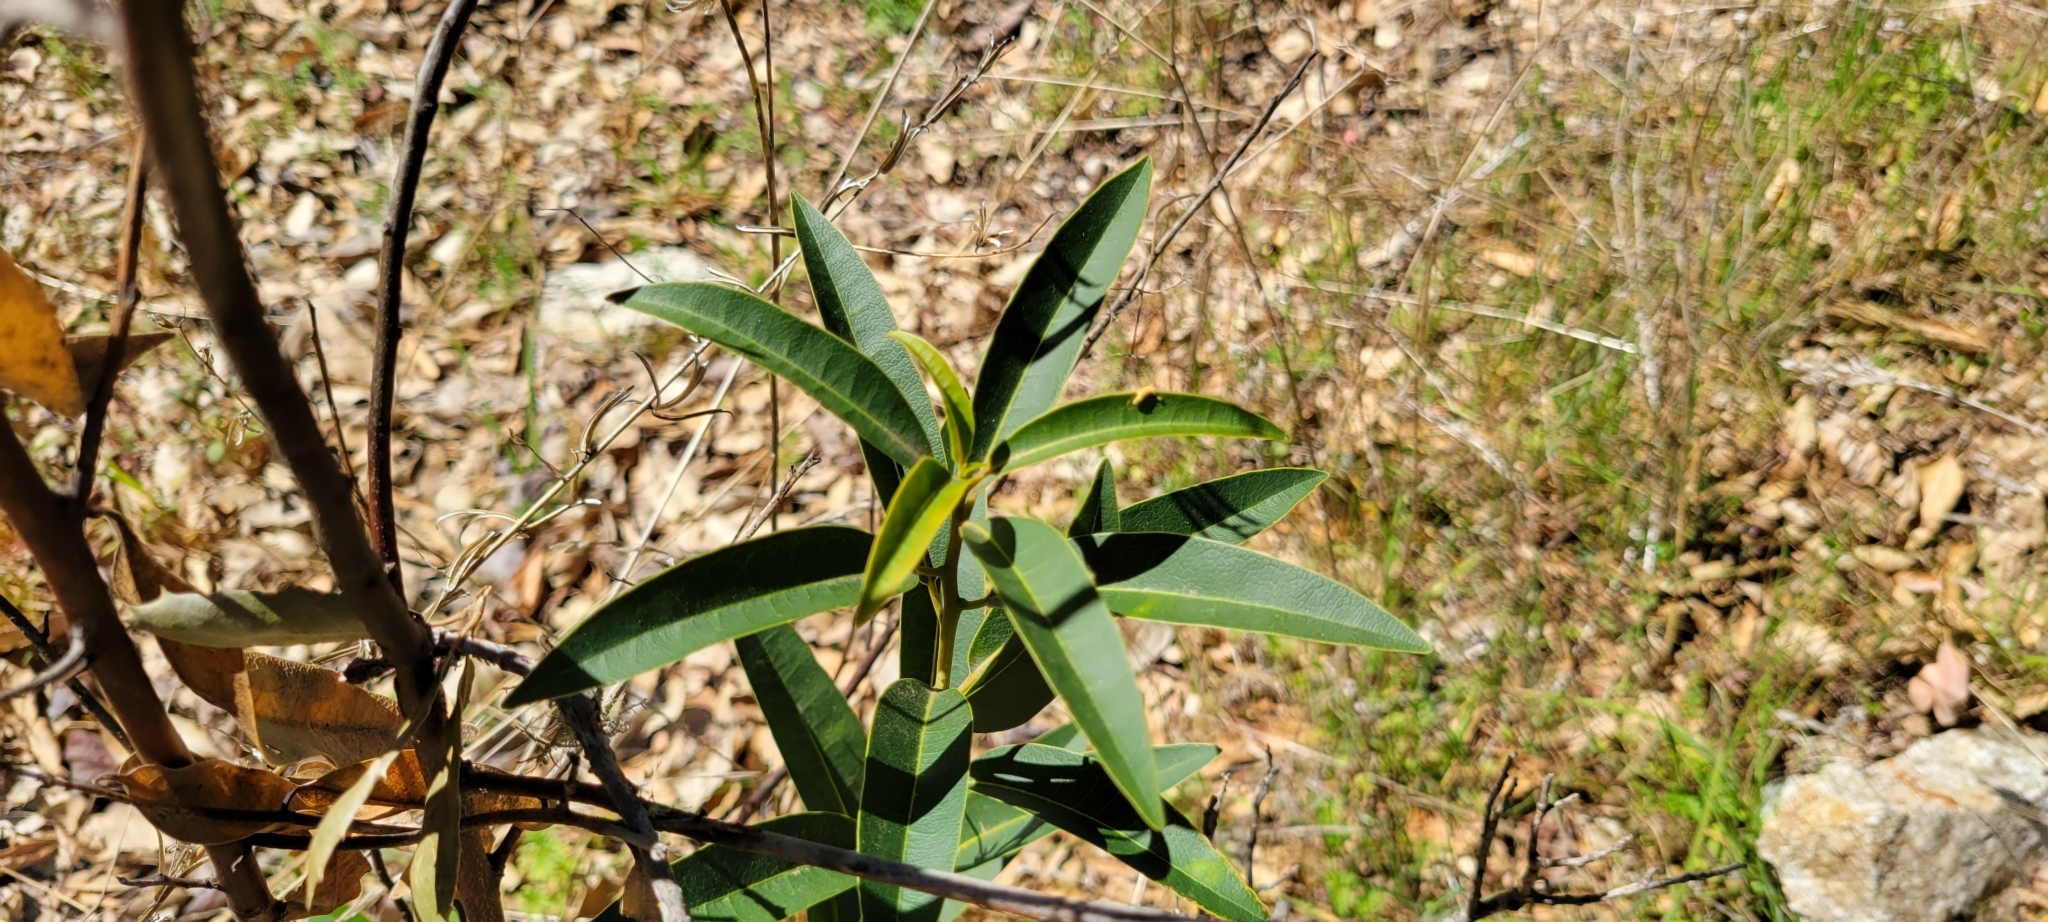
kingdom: Plantae
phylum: Tracheophyta
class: Magnoliopsida
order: Laurales
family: Lauraceae
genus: Umbellularia
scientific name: Umbellularia californica
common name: California bay
